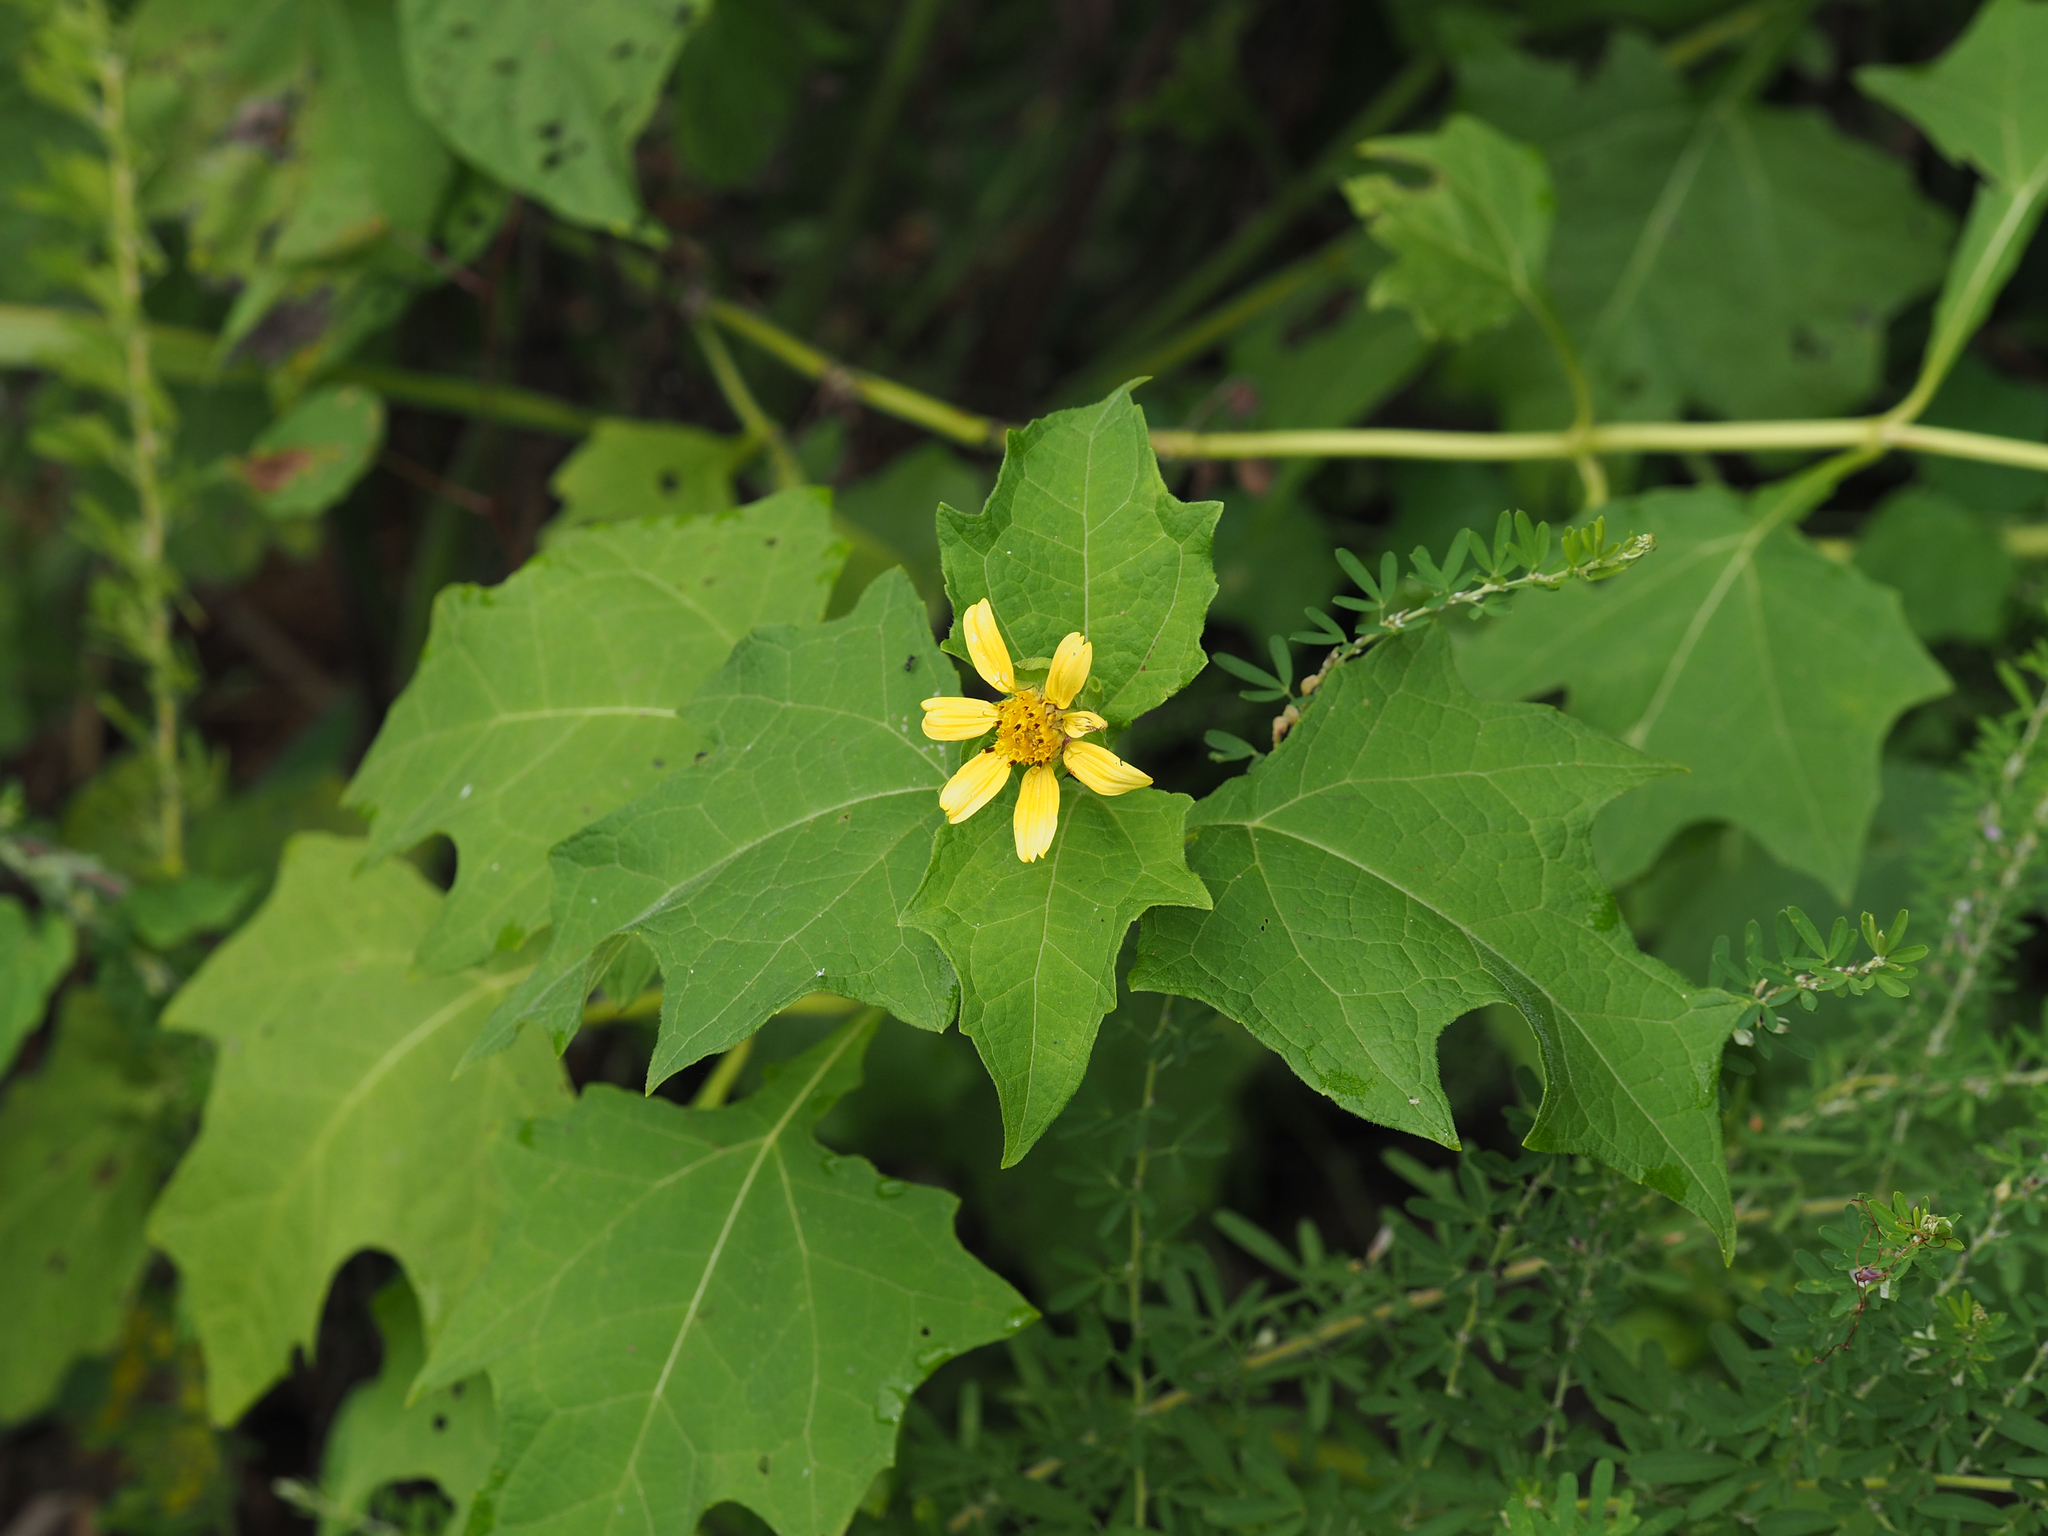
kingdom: Plantae
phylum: Tracheophyta
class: Magnoliopsida
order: Asterales
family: Asteraceae
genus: Smallanthus
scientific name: Smallanthus uvedalia
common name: Bear's-foot
